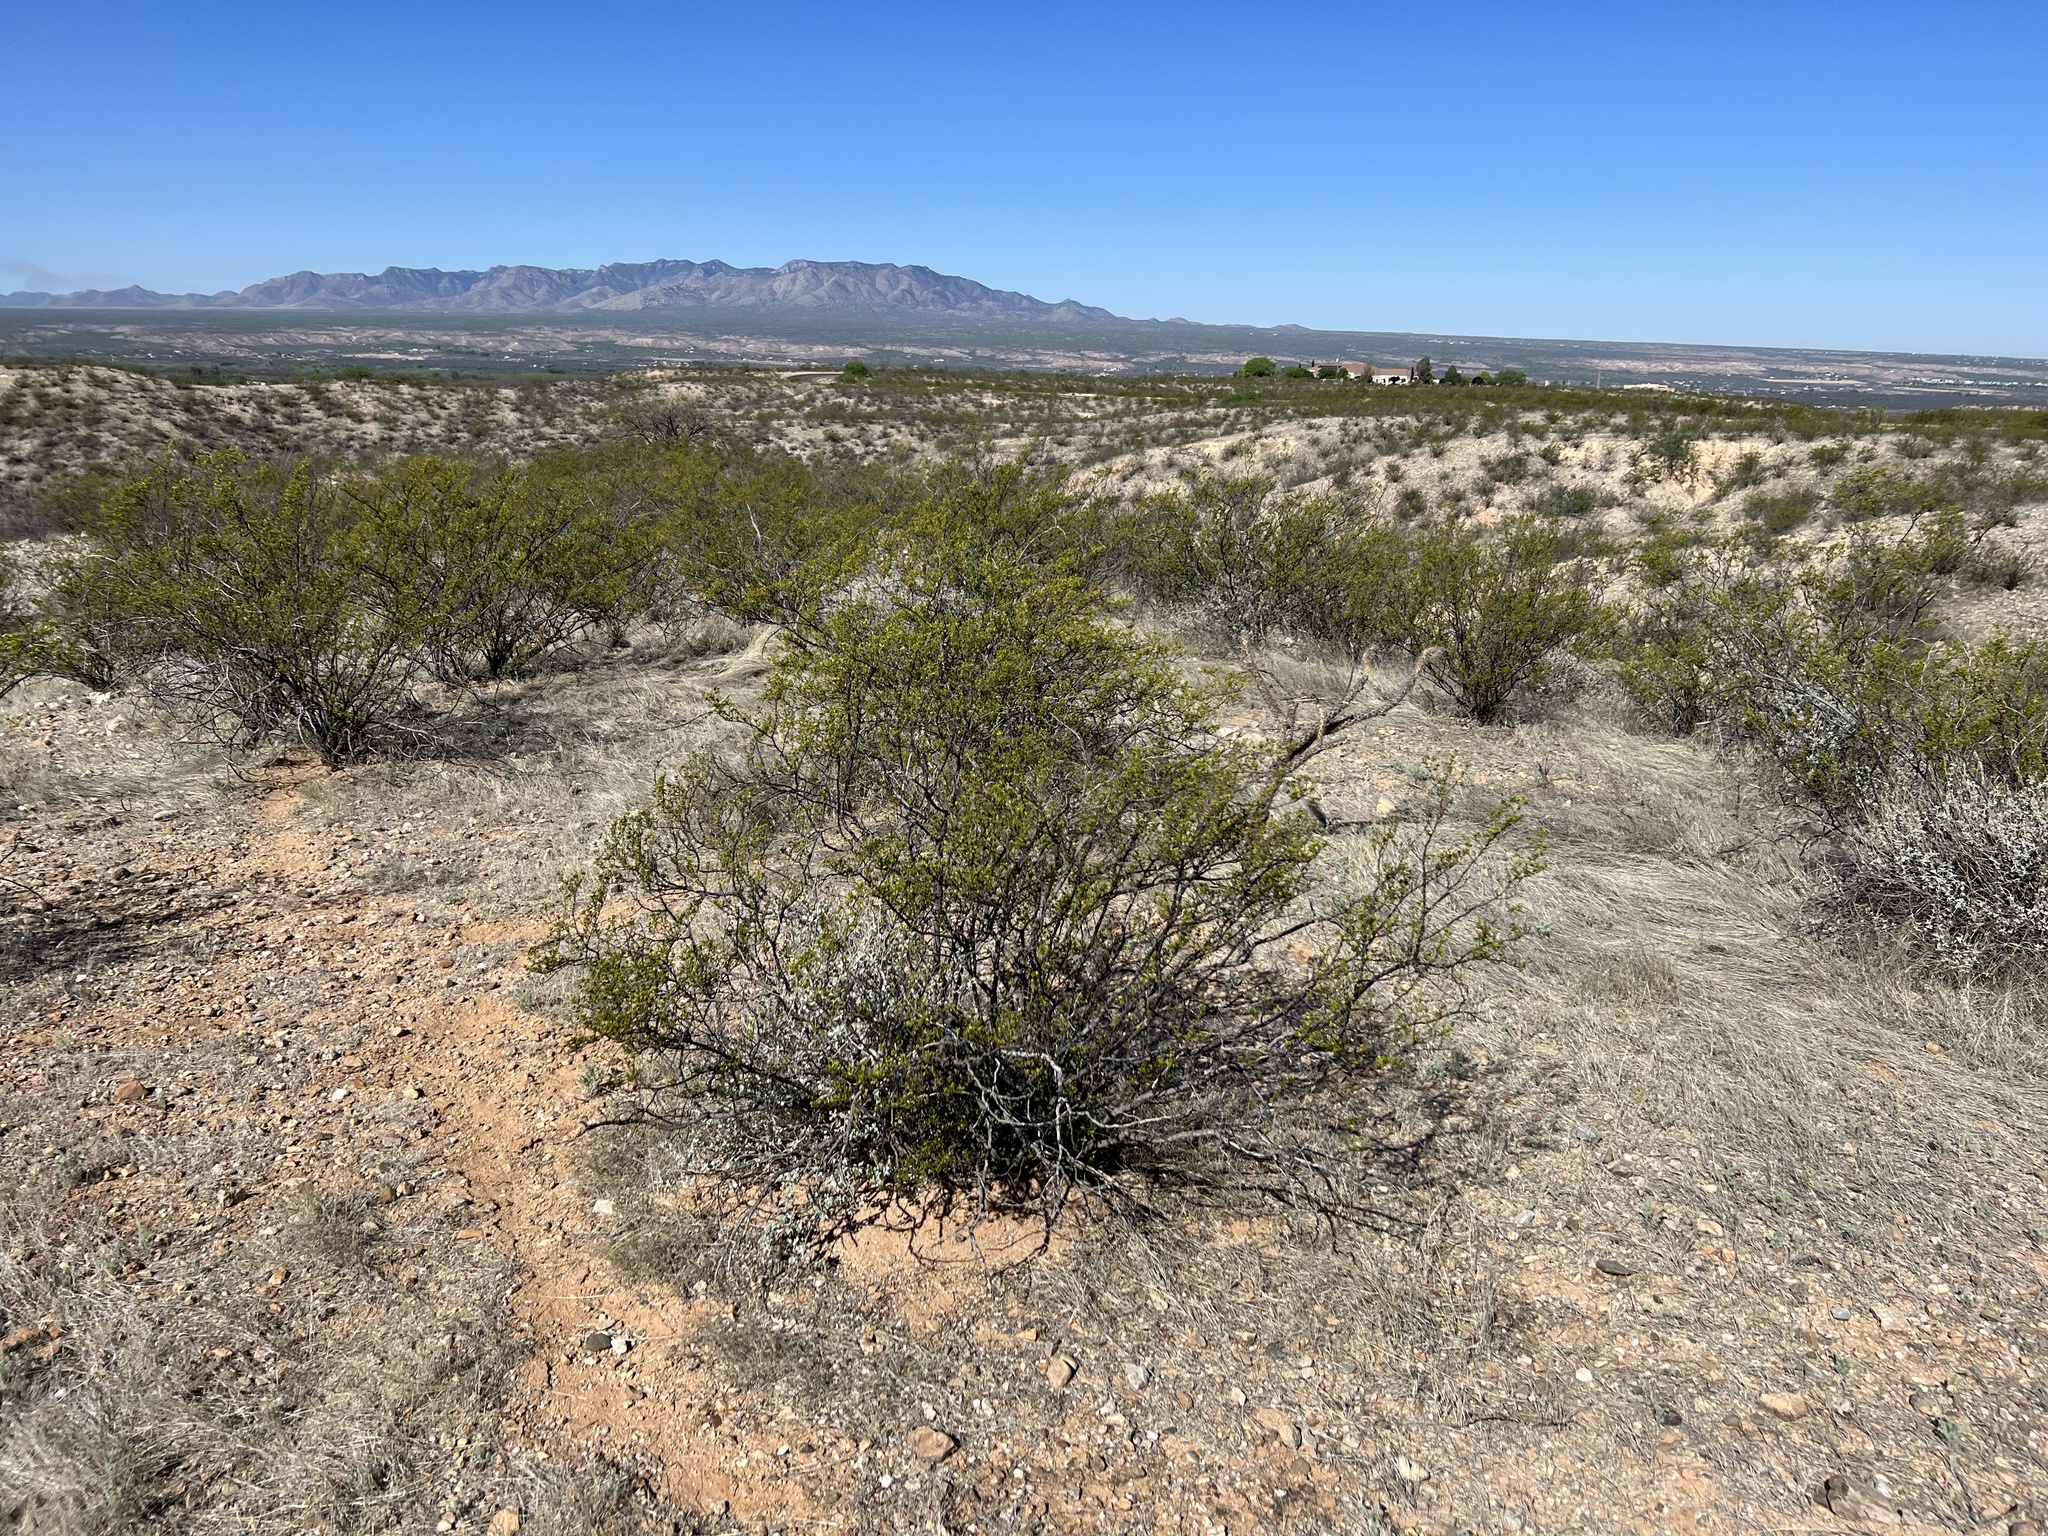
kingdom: Plantae
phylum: Tracheophyta
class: Magnoliopsida
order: Zygophyllales
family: Zygophyllaceae
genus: Larrea
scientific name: Larrea tridentata
